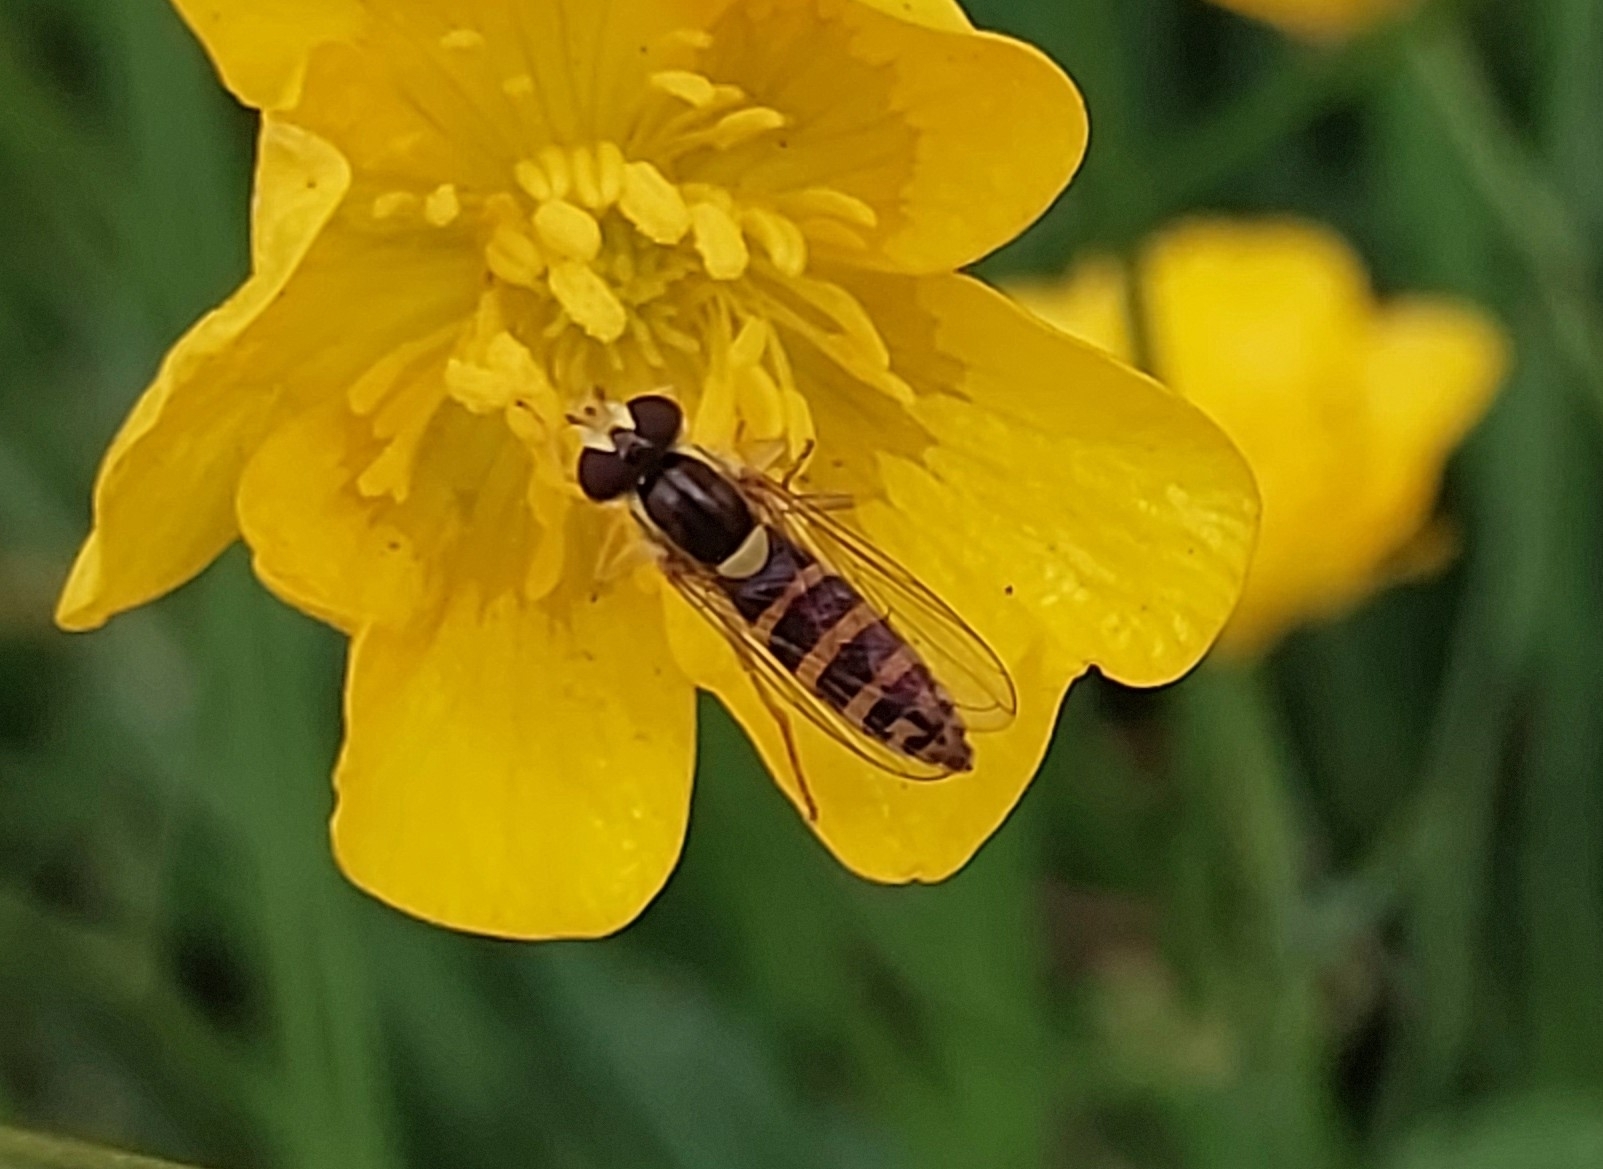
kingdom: Animalia
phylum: Arthropoda
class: Insecta
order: Diptera
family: Syrphidae
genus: Sphaerophoria
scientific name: Sphaerophoria
